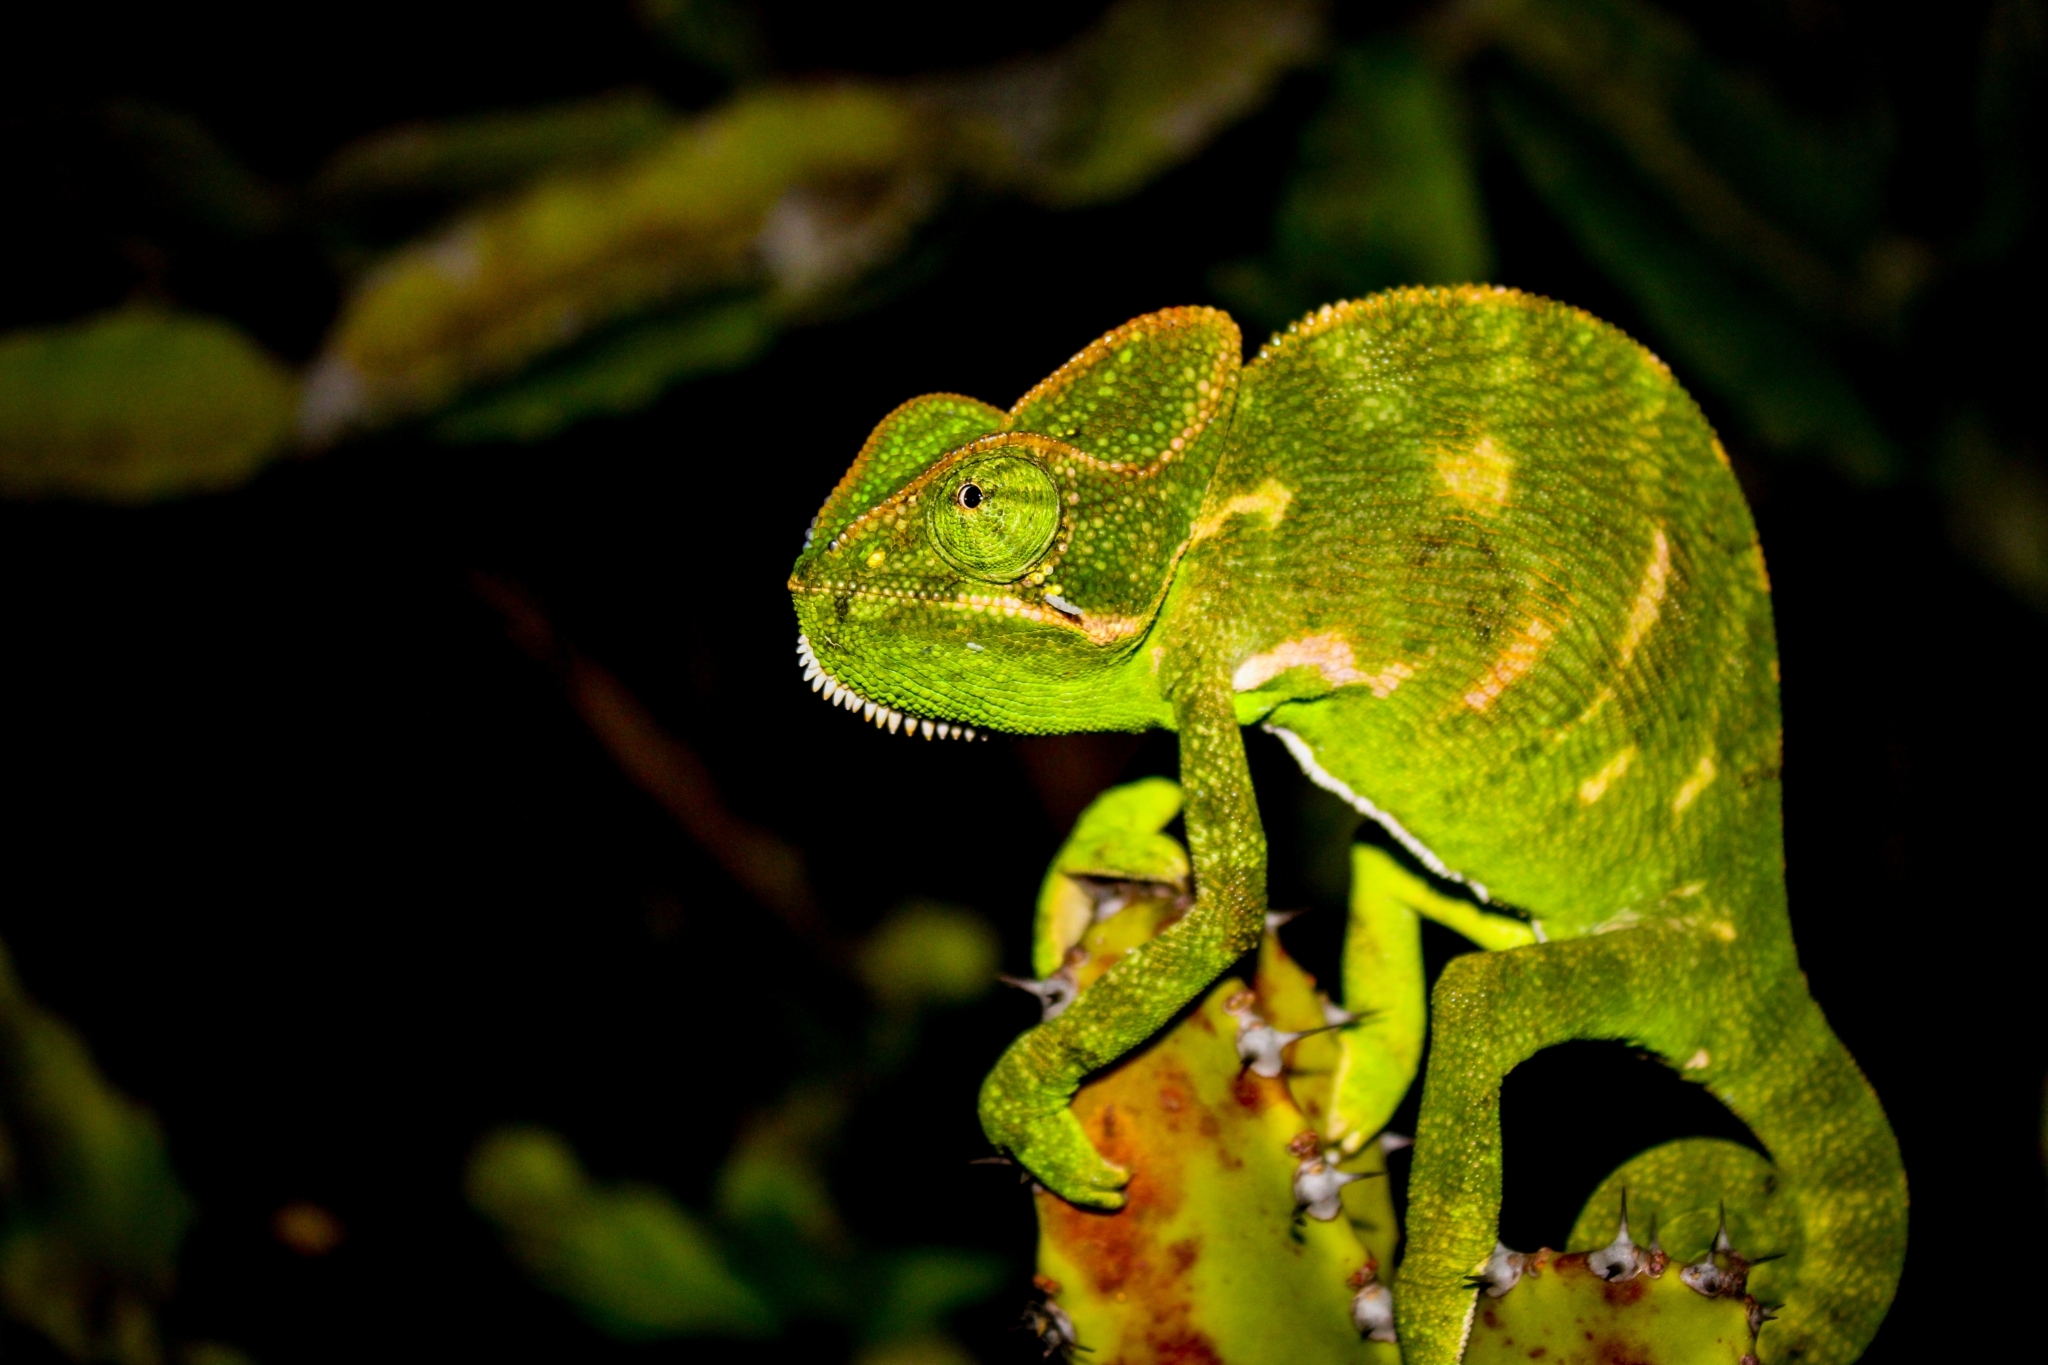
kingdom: Animalia
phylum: Chordata
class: Squamata
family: Chamaeleonidae
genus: Chamaeleo
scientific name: Chamaeleo zeylanicus
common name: Indian chameleon
